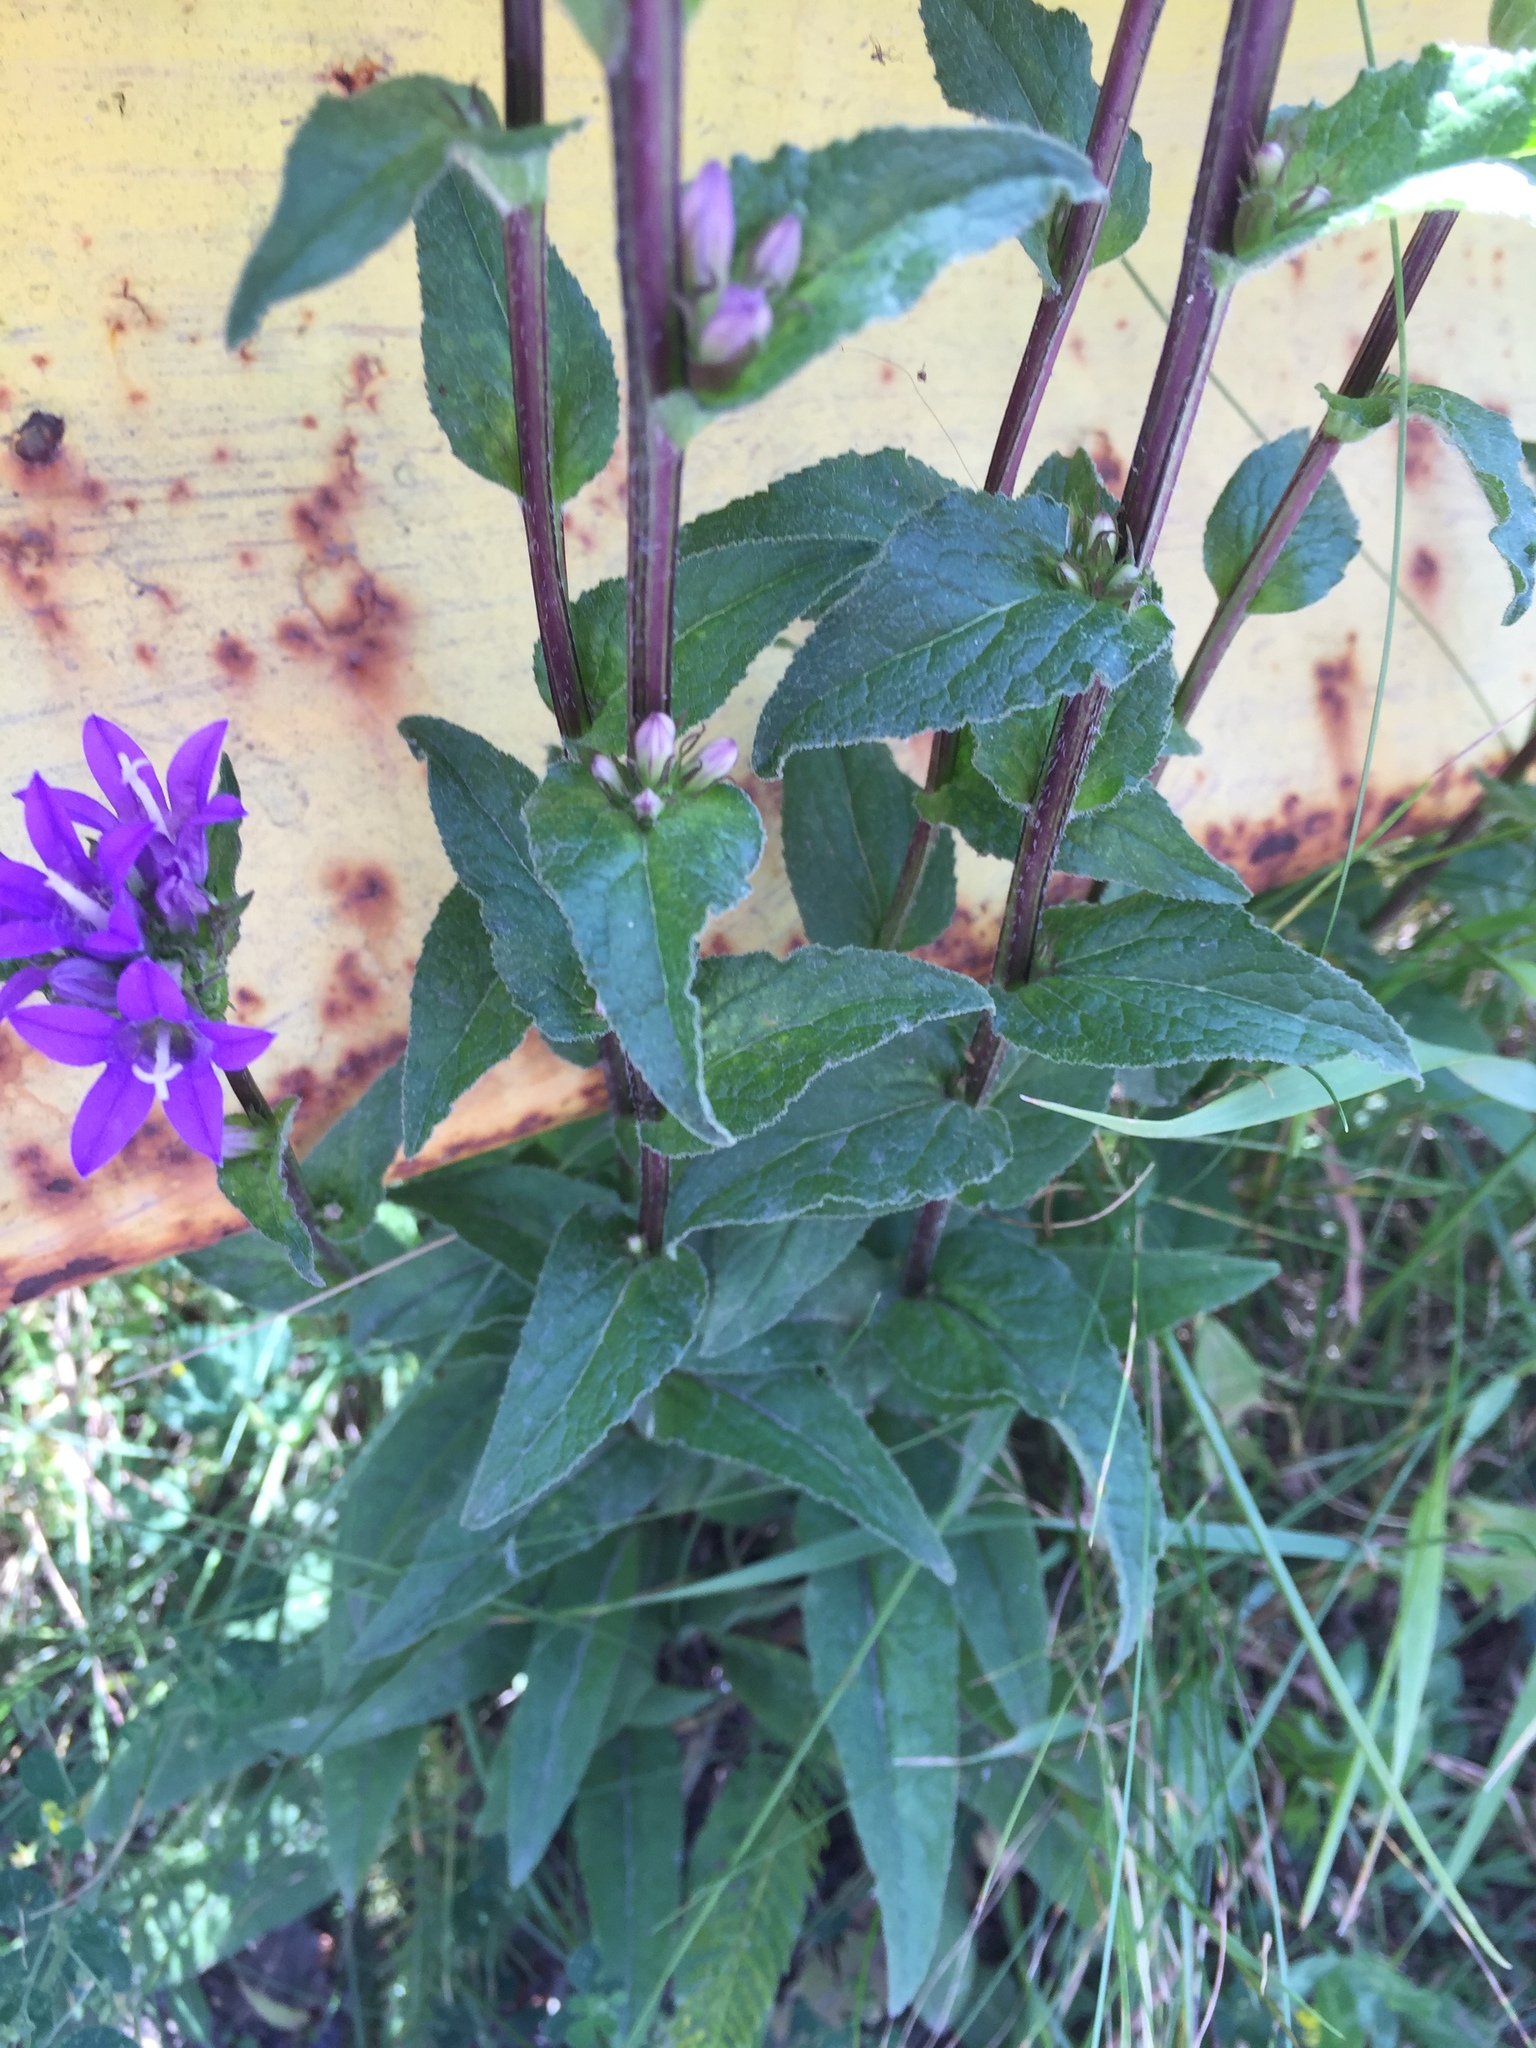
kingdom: Plantae
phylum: Tracheophyta
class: Magnoliopsida
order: Asterales
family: Campanulaceae
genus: Campanula
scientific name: Campanula glomerata
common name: Clustered bellflower
